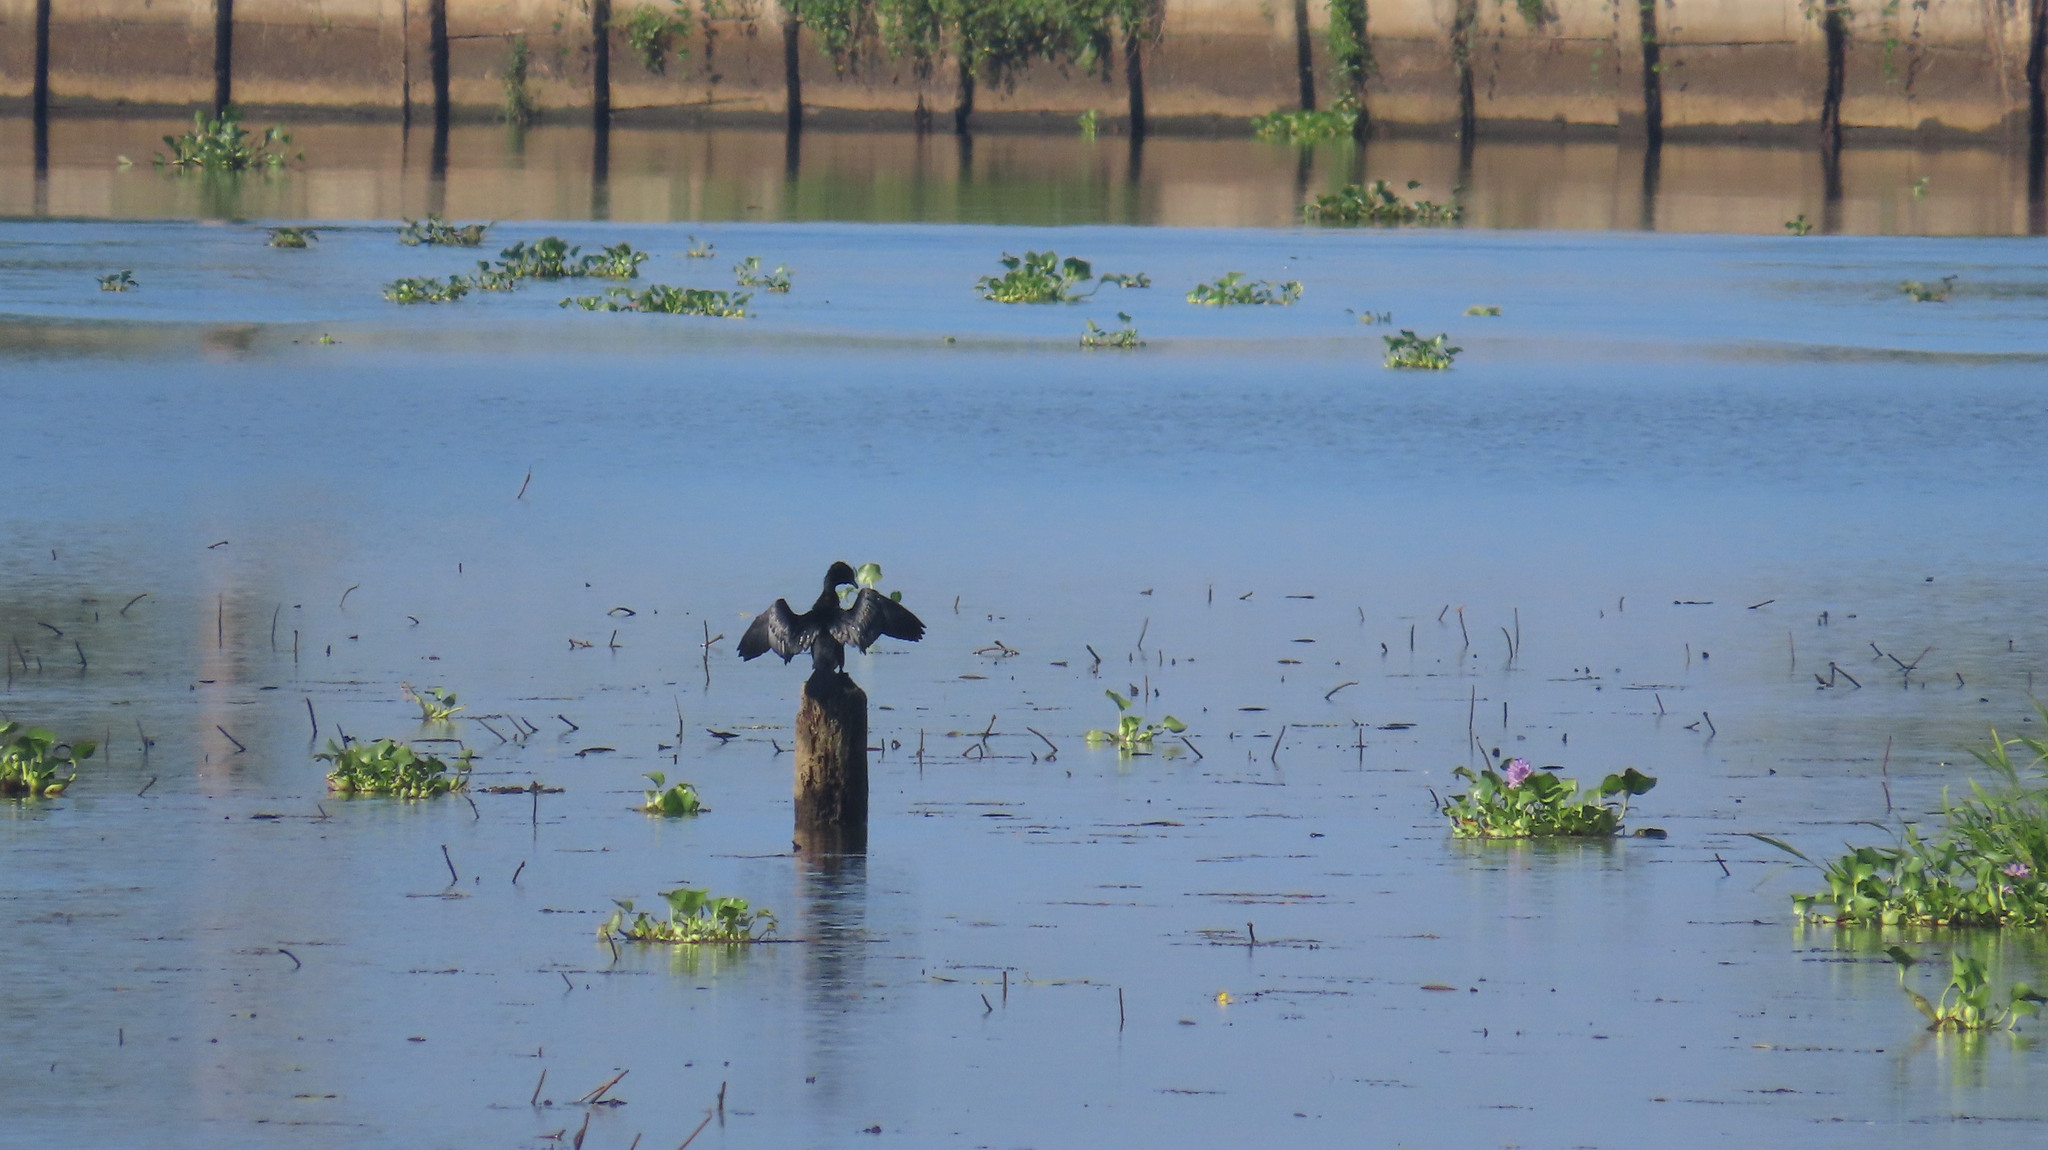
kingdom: Animalia
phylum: Chordata
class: Aves
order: Suliformes
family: Phalacrocoracidae
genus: Microcarbo
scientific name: Microcarbo niger
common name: Little cormorant
